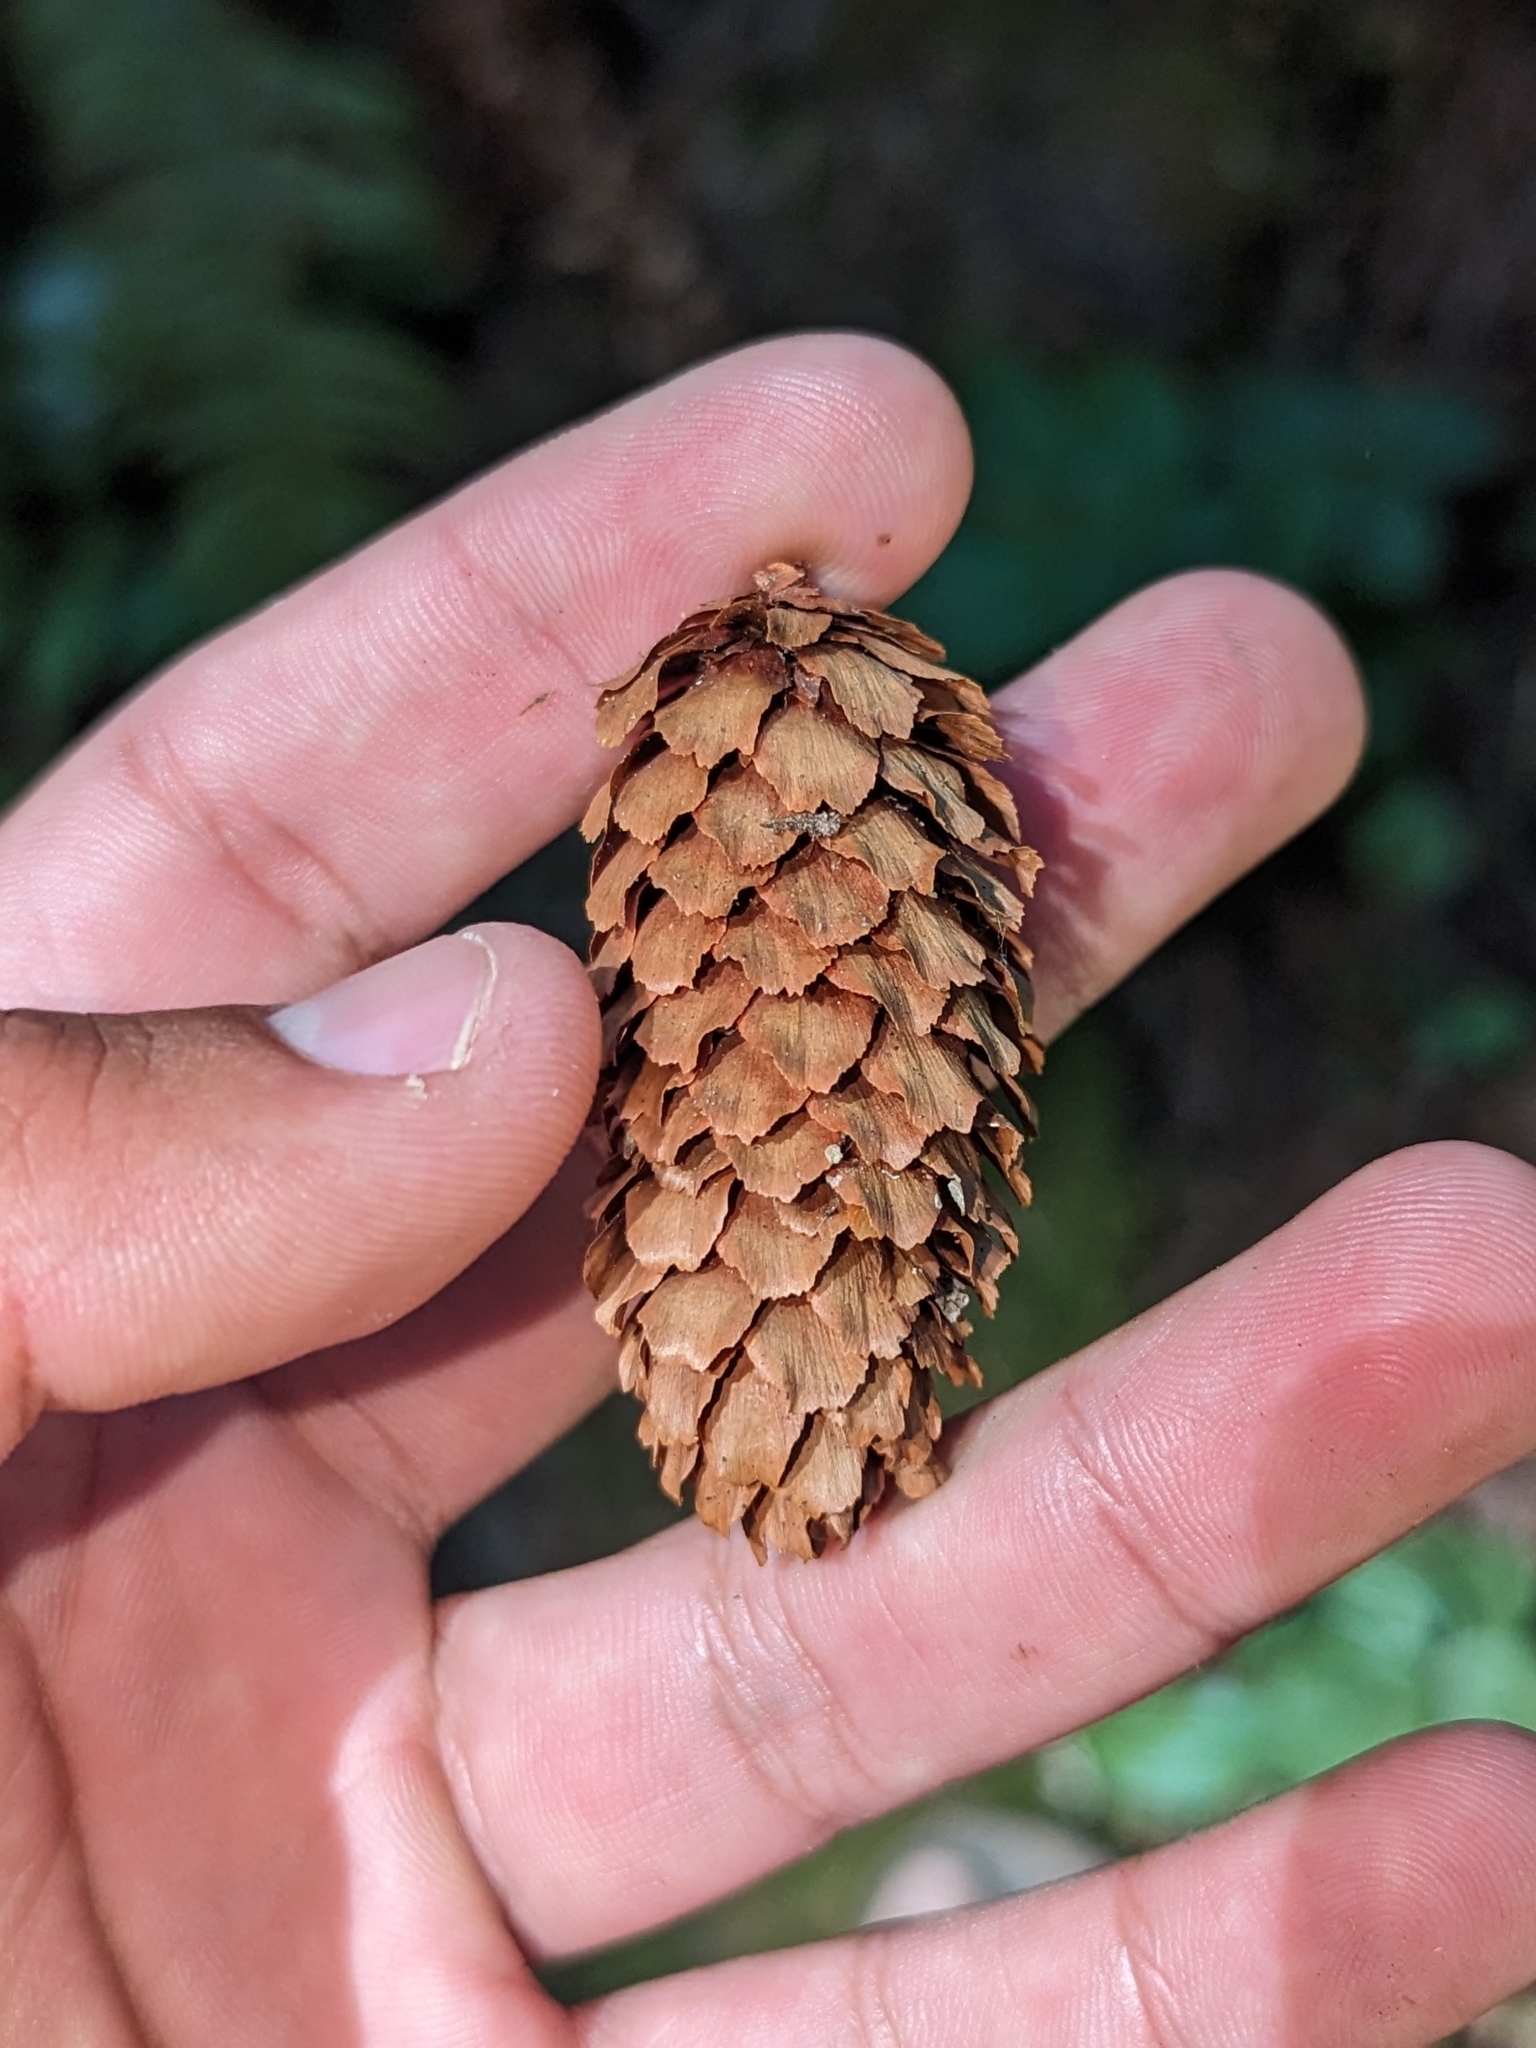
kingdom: Plantae
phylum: Tracheophyta
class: Pinopsida
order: Pinales
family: Pinaceae
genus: Picea
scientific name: Picea sitchensis
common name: Sitka spruce
